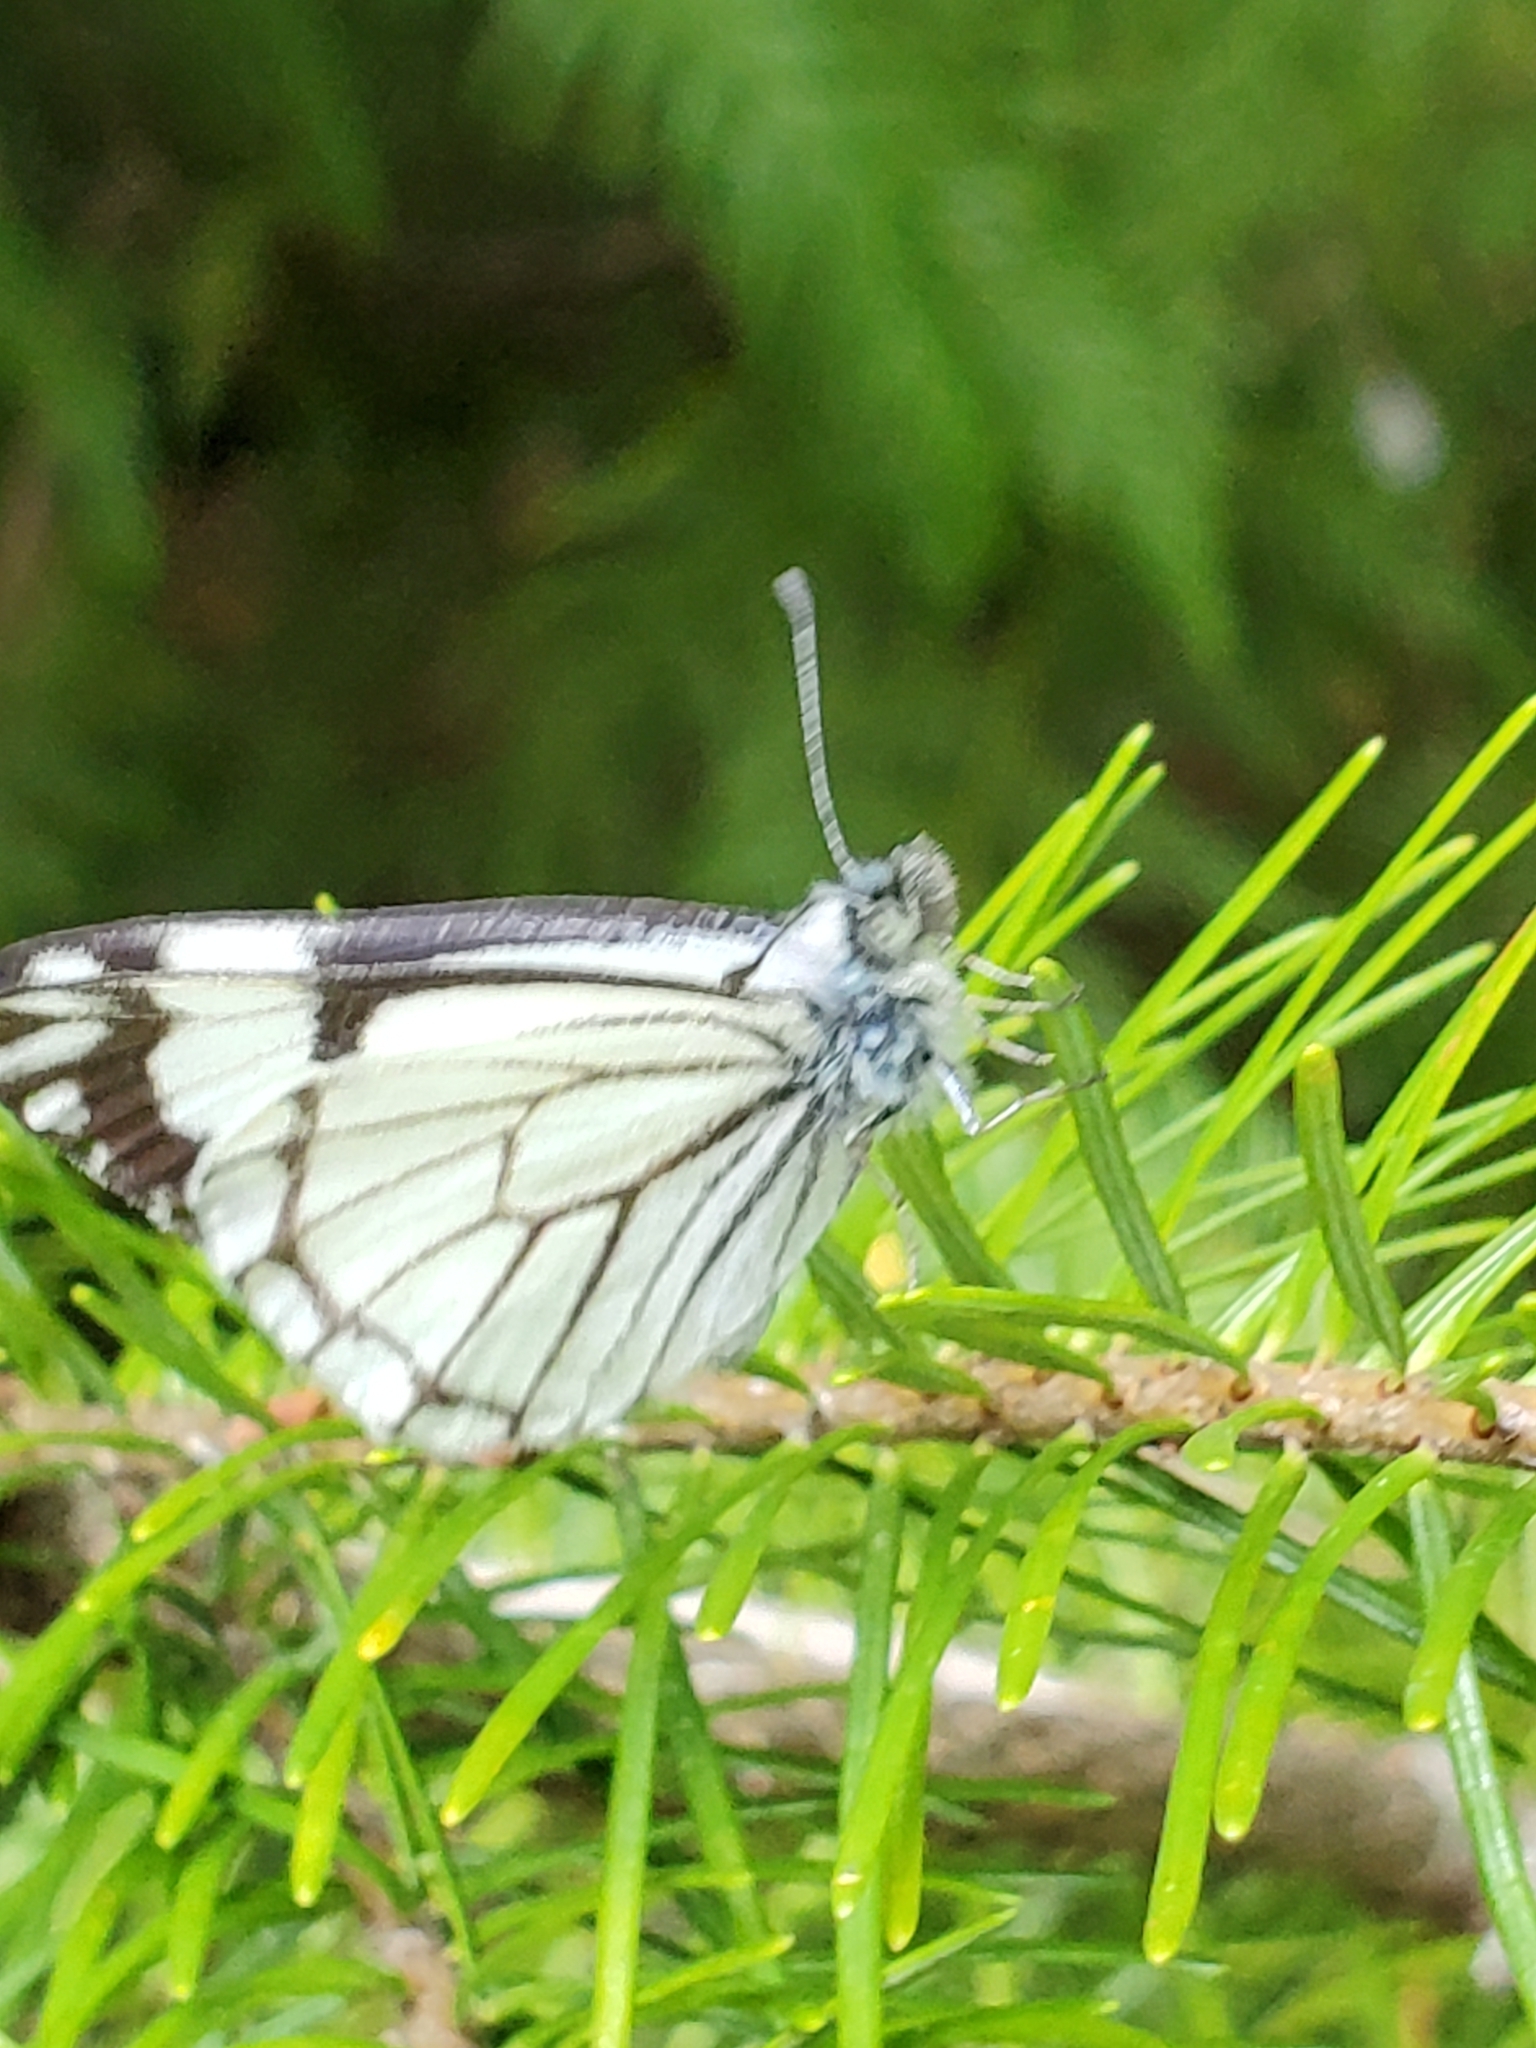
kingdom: Animalia
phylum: Arthropoda
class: Insecta
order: Lepidoptera
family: Pieridae
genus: Neophasia
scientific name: Neophasia menapia
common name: Pine white
